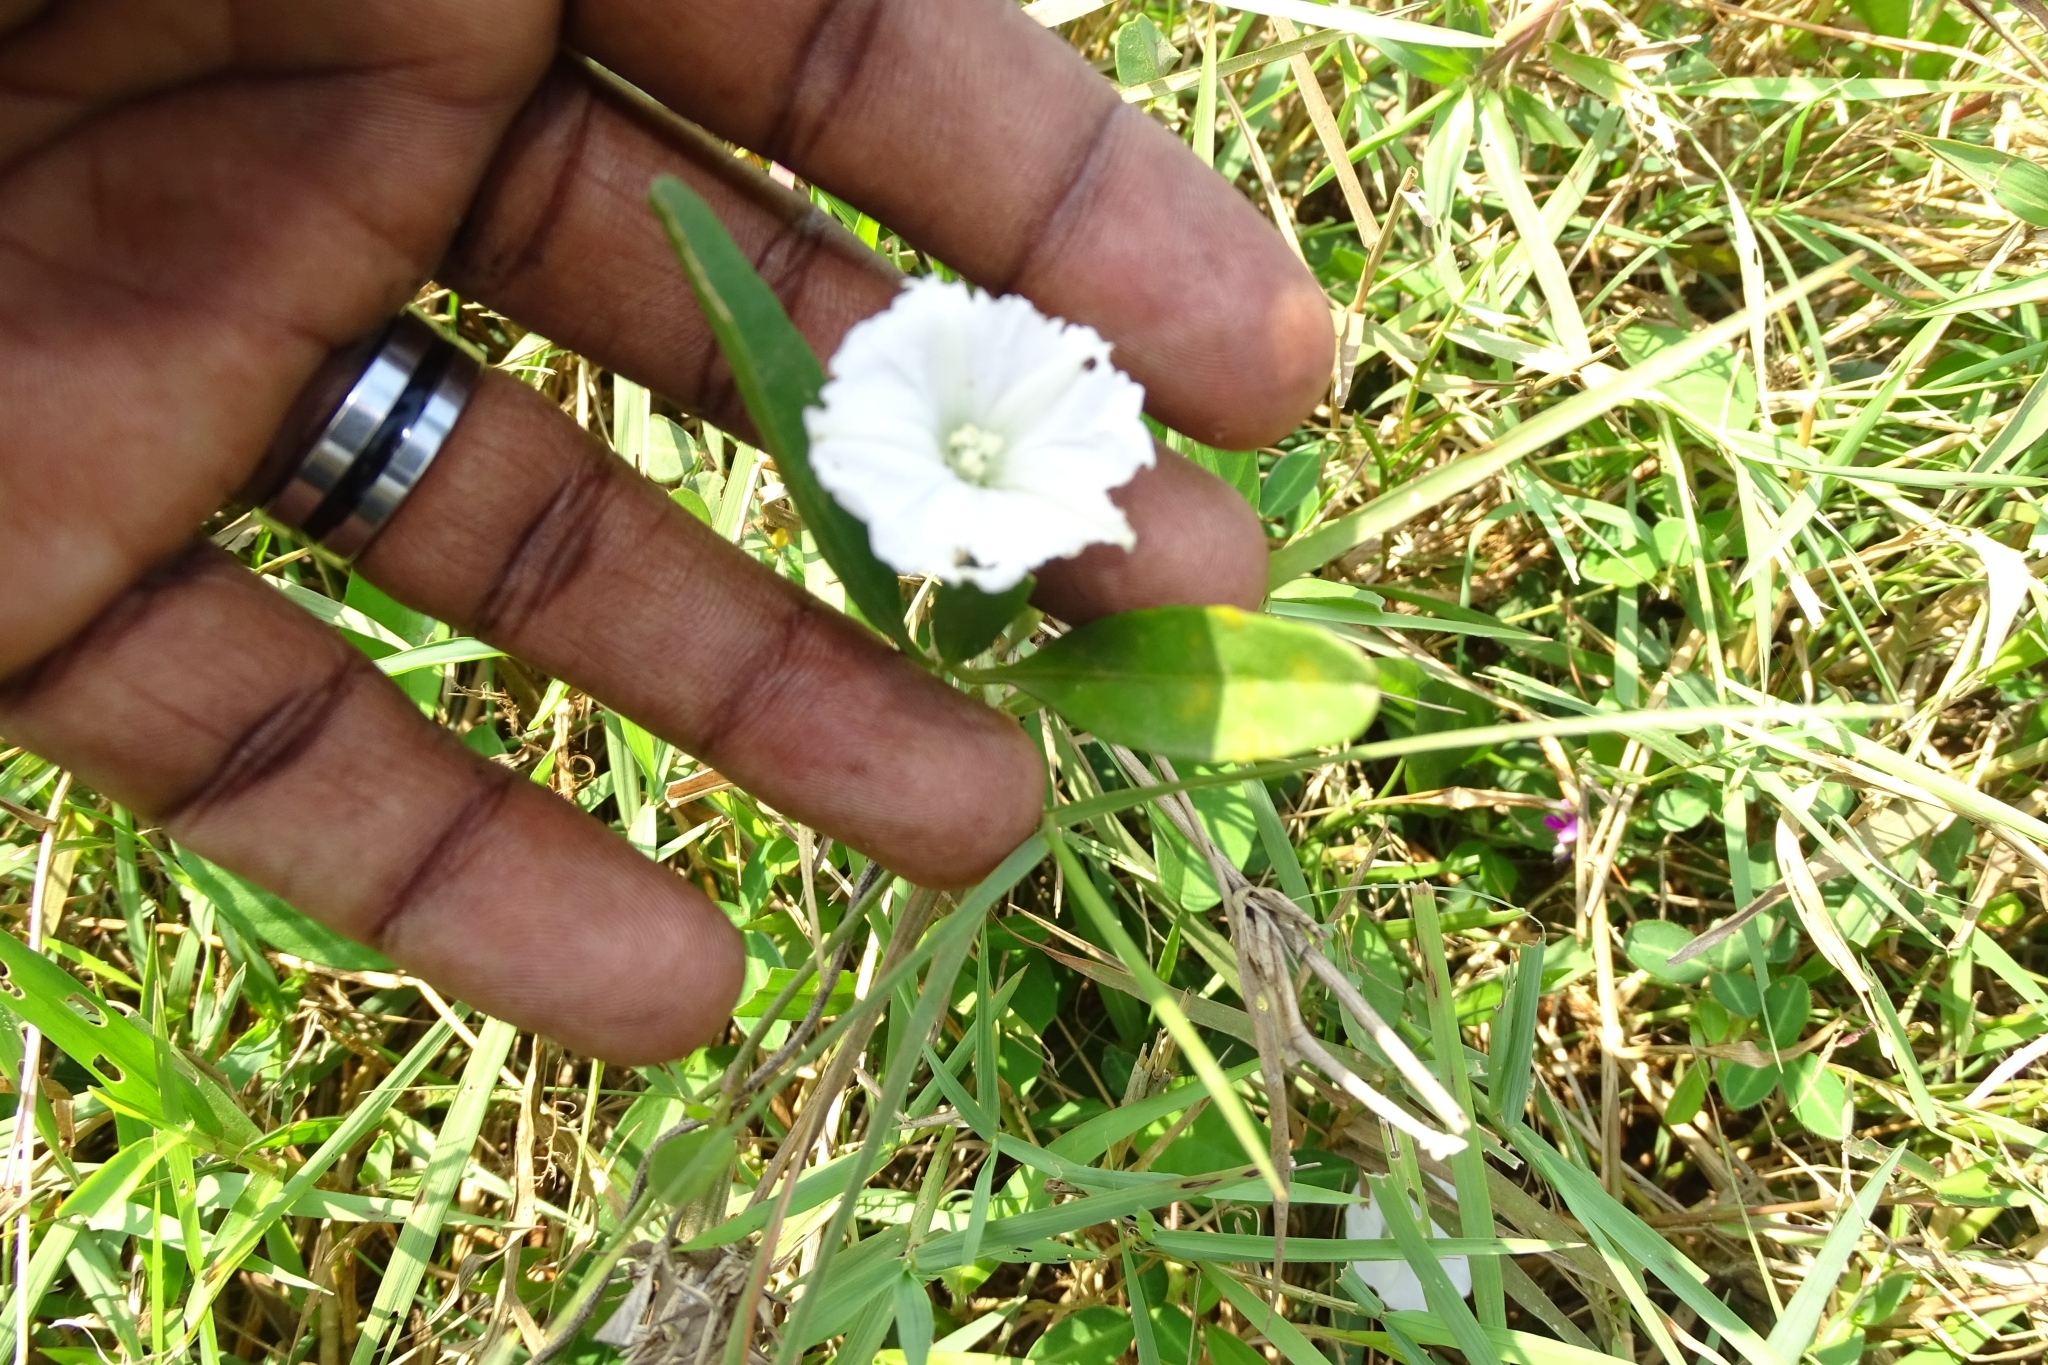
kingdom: Plantae
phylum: Tracheophyta
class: Magnoliopsida
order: Solanales
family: Convolvulaceae
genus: Aniseia
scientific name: Aniseia martinicensis
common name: Kulayadambu
